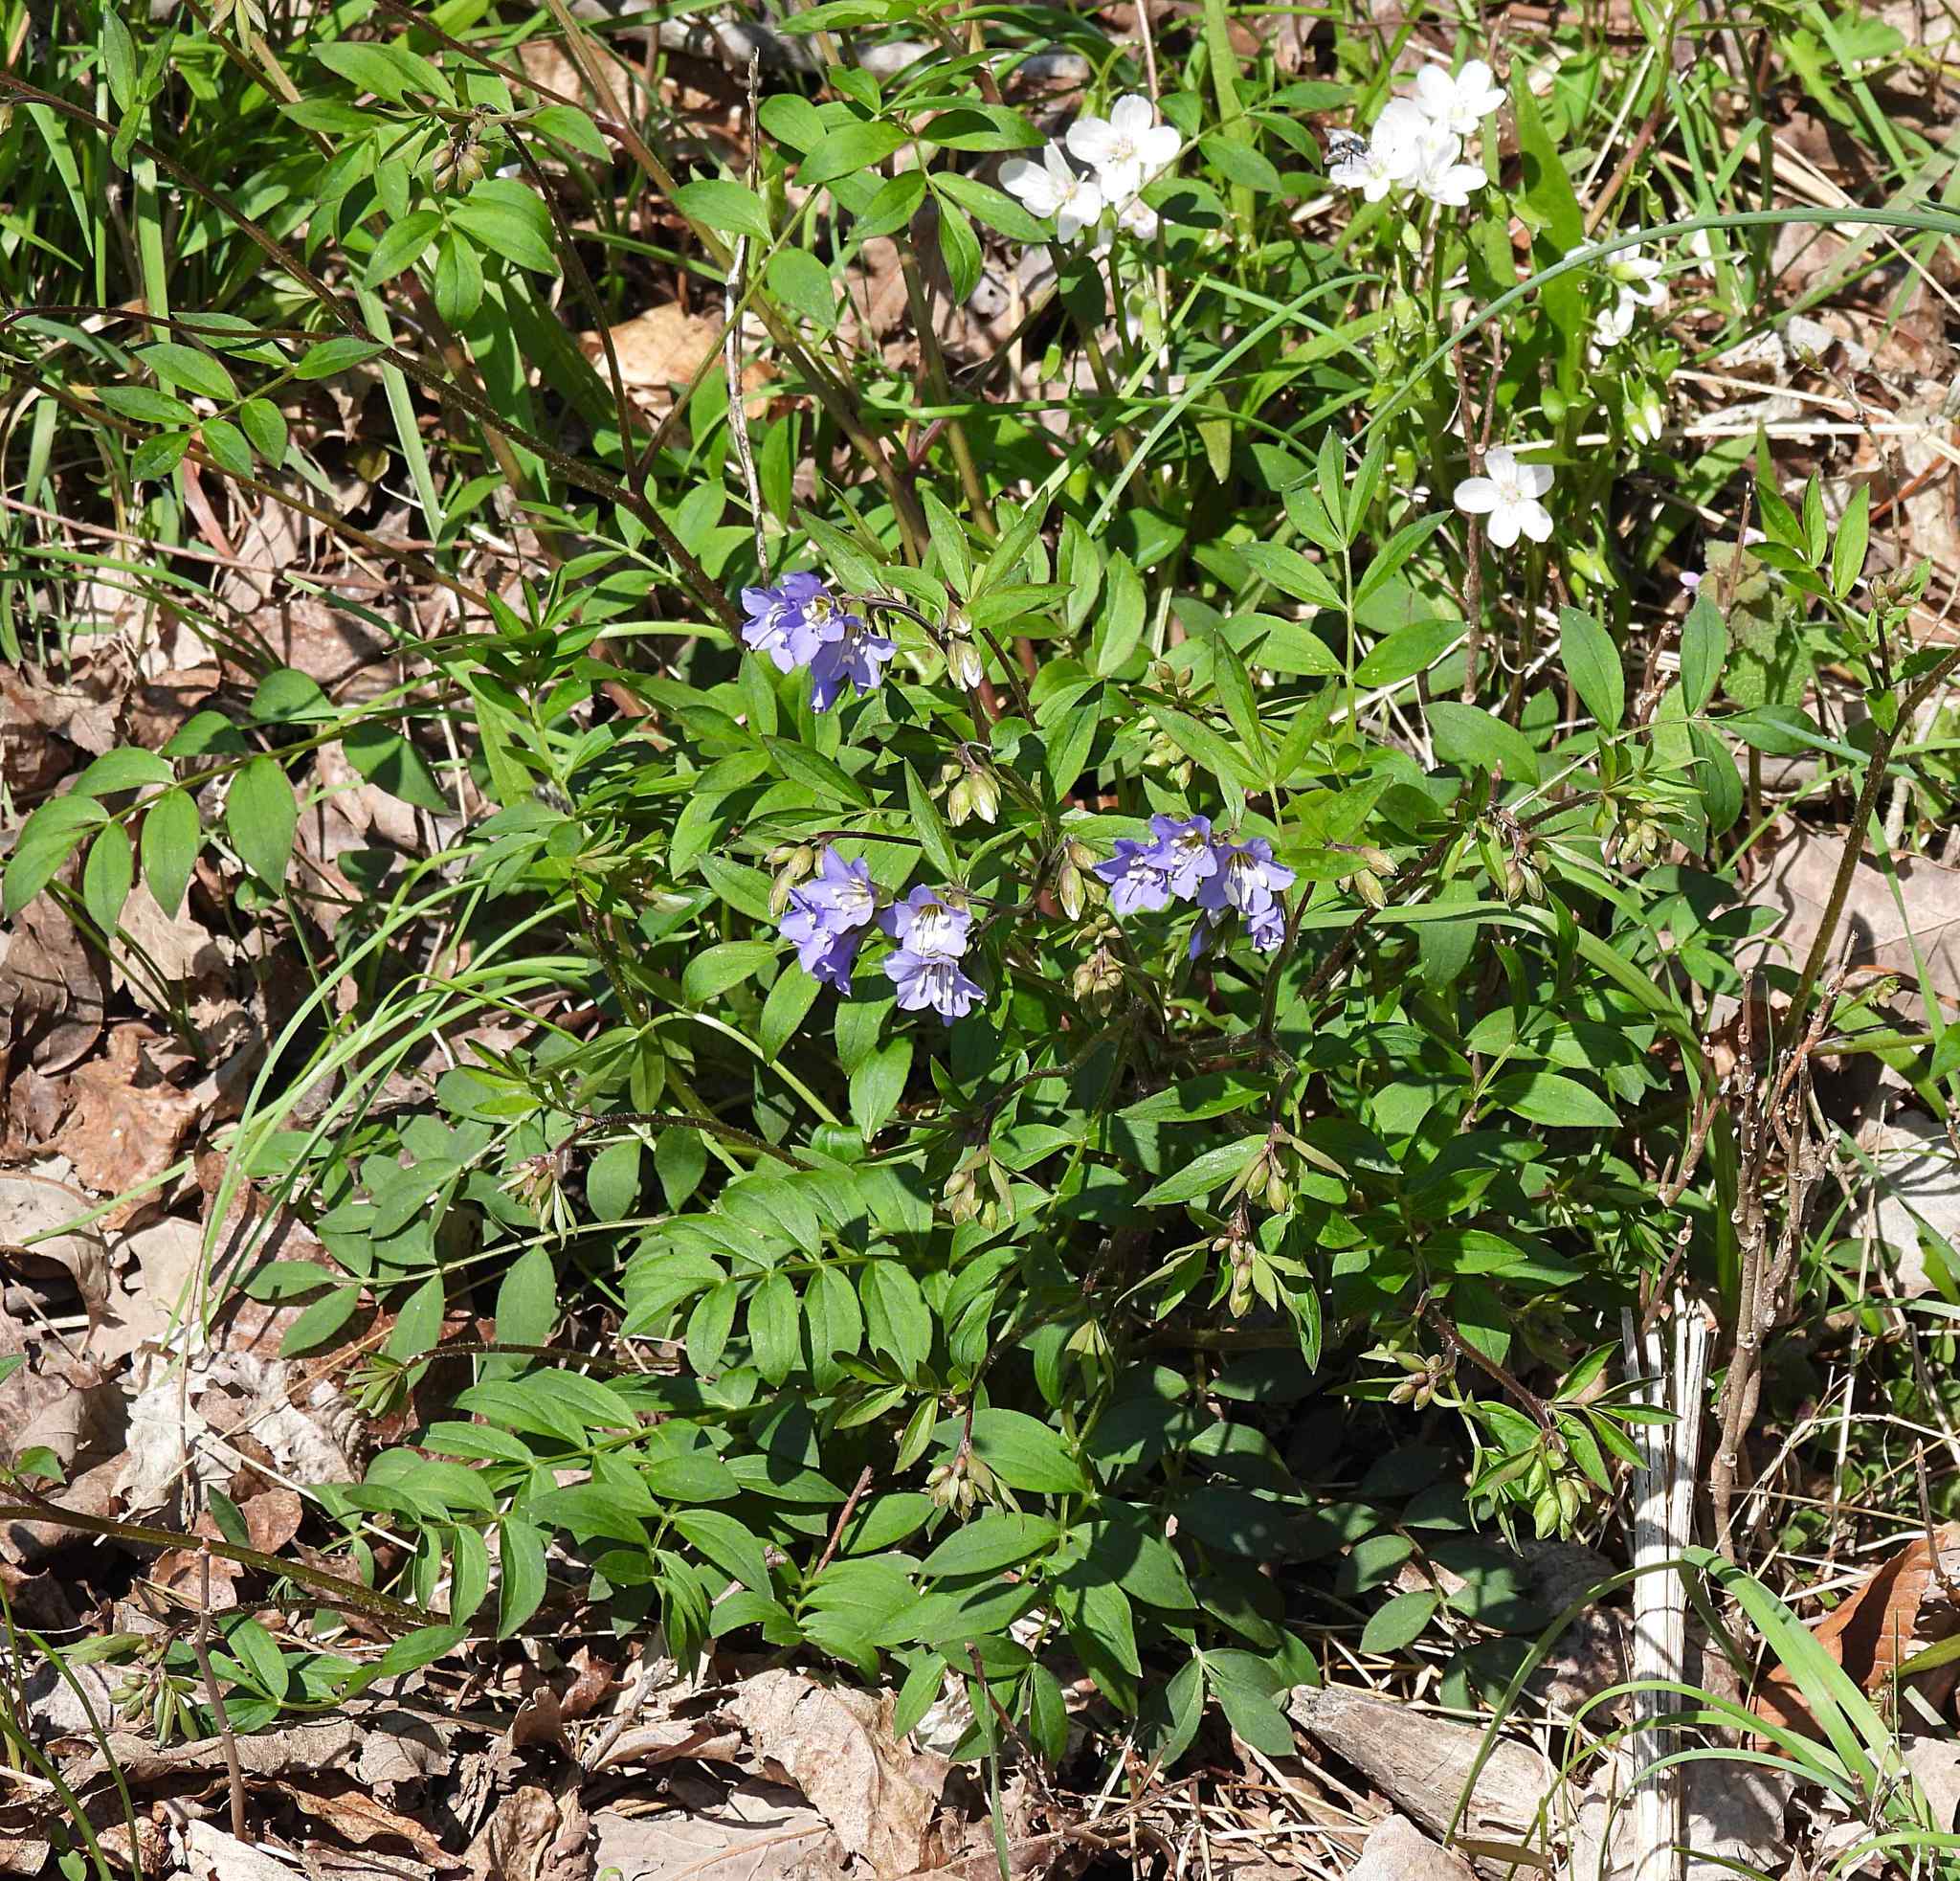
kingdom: Plantae
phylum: Tracheophyta
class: Magnoliopsida
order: Ericales
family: Polemoniaceae
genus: Polemonium
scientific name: Polemonium reptans
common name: Creeping jacob's-ladder
